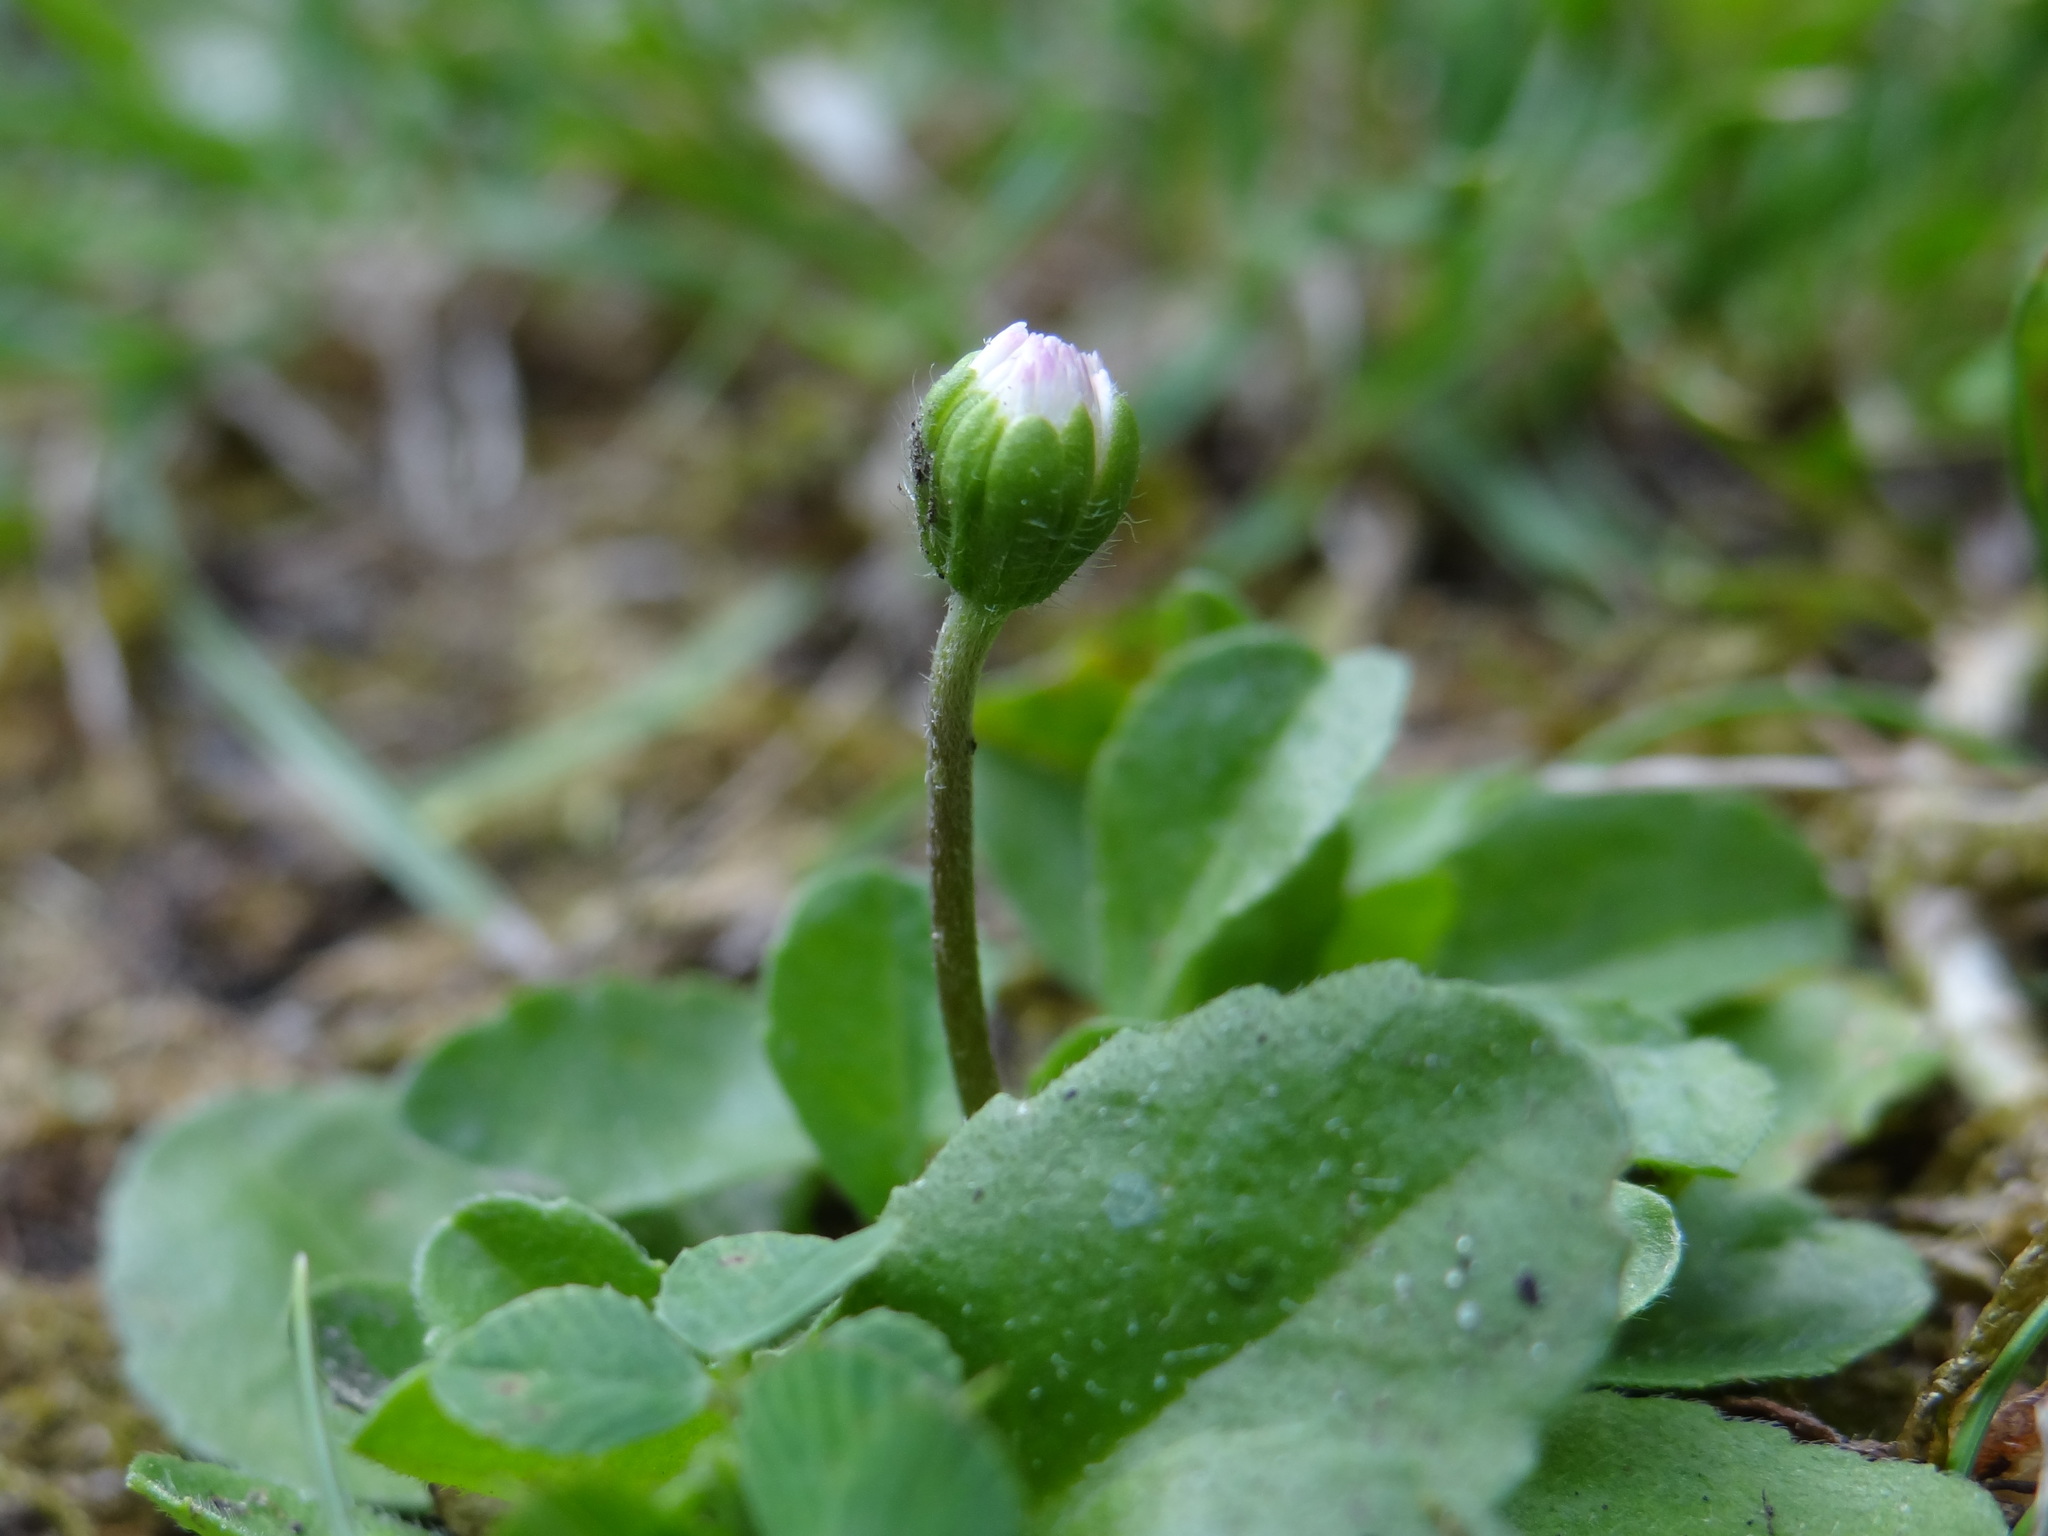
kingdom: Plantae
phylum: Tracheophyta
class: Magnoliopsida
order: Asterales
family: Asteraceae
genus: Bellis
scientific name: Bellis perennis
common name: Lawndaisy
